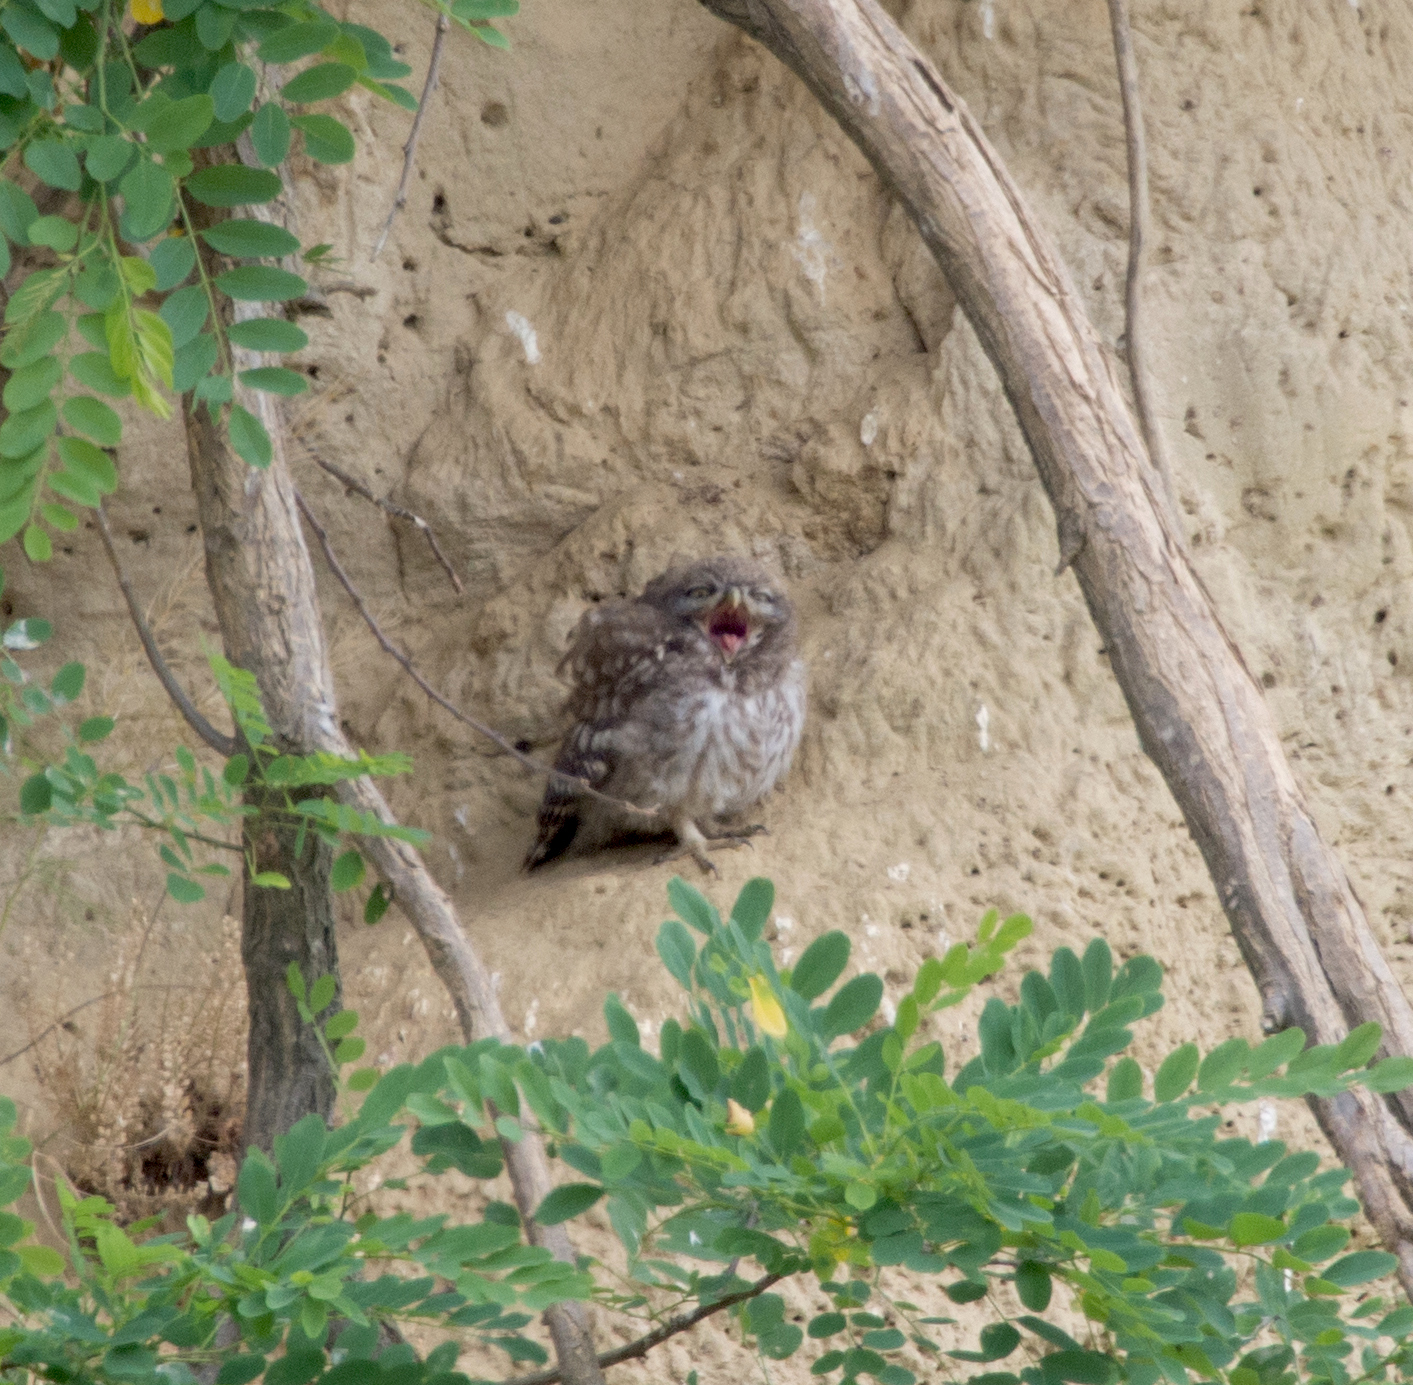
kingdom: Animalia
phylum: Chordata
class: Aves
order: Strigiformes
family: Strigidae
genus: Athene
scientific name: Athene noctua
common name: Little owl
